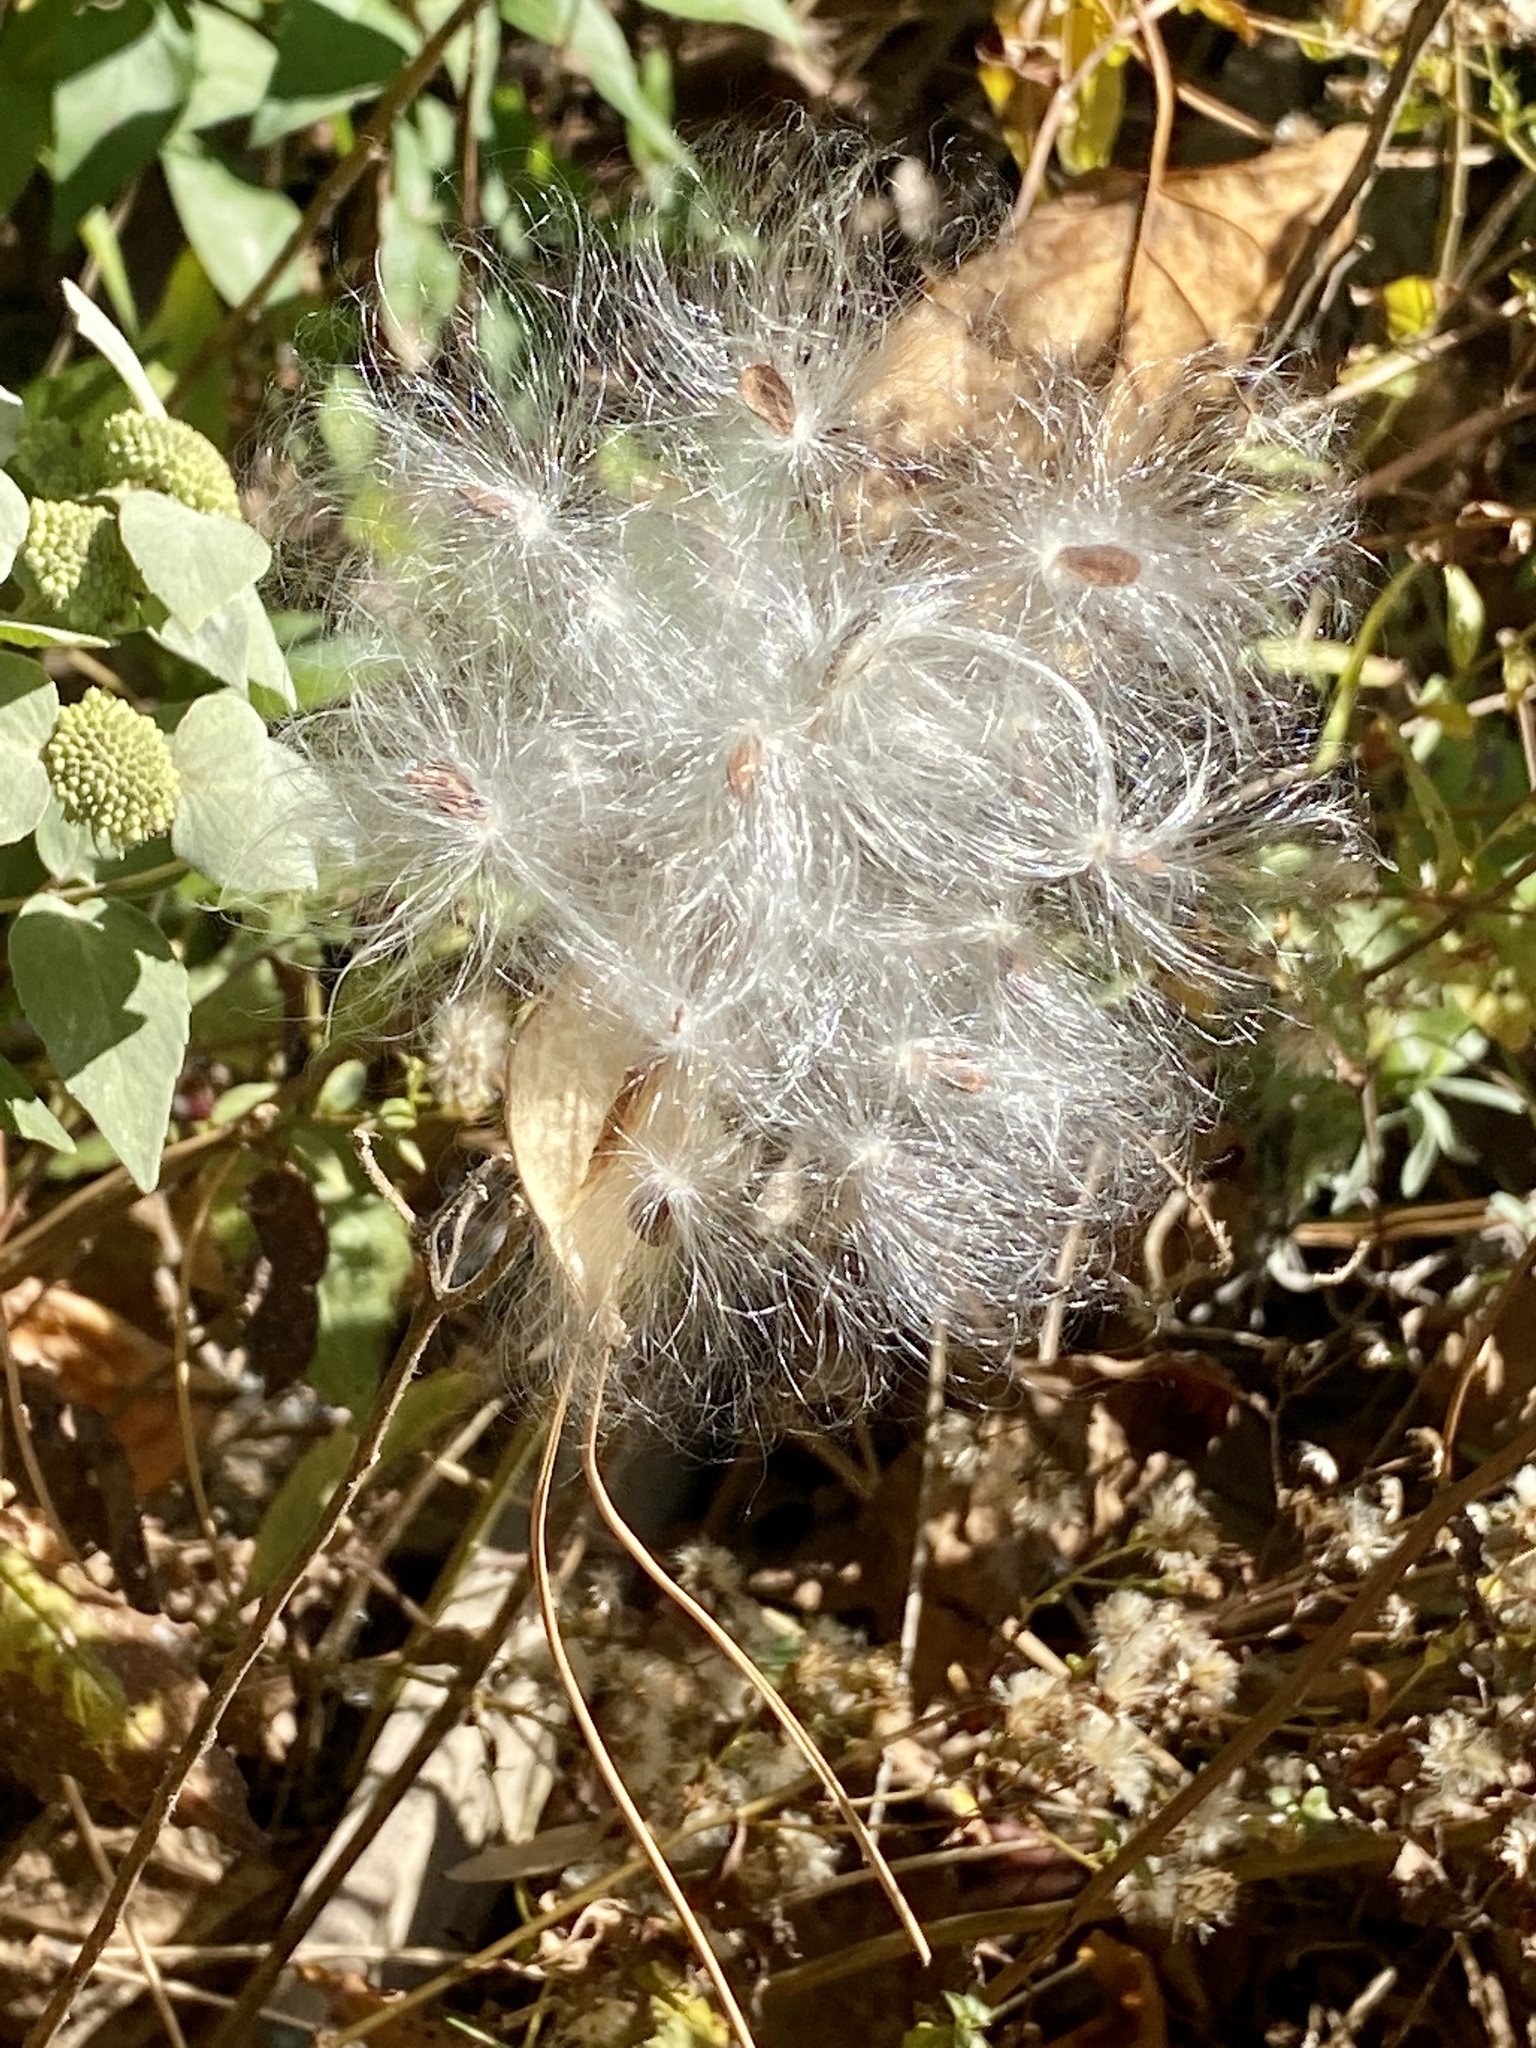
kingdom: Plantae
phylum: Tracheophyta
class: Magnoliopsida
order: Gentianales
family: Apocynaceae
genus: Asclepias
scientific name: Asclepias tuberosa
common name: Butterfly milkweed
